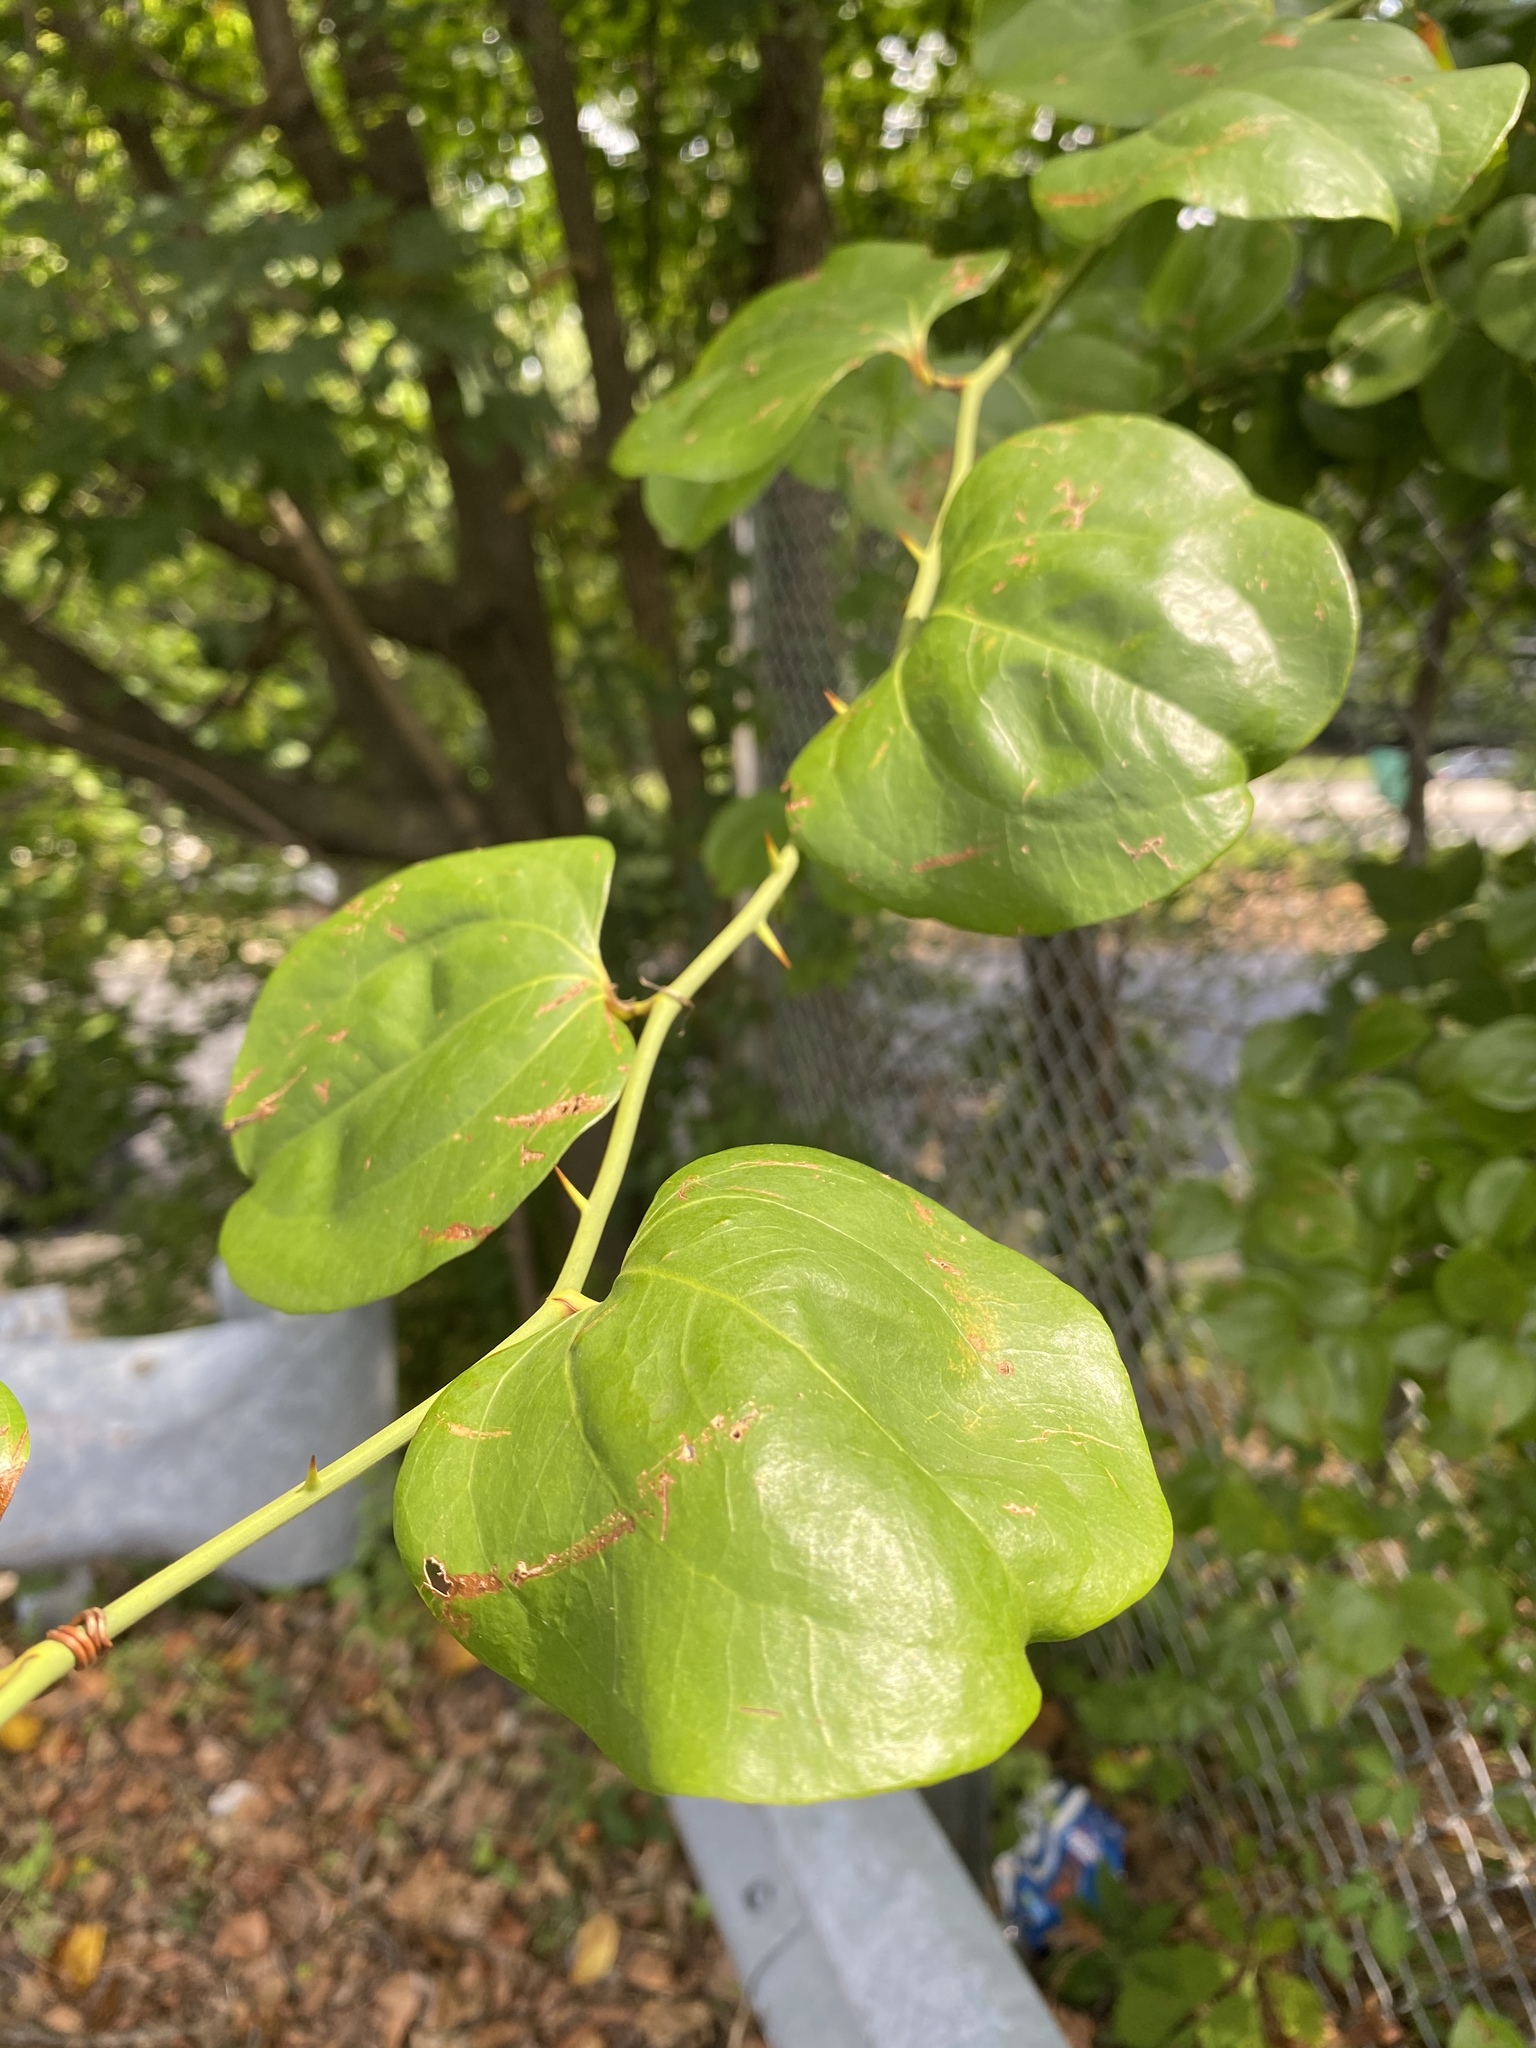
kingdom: Plantae
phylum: Tracheophyta
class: Liliopsida
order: Liliales
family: Smilacaceae
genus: Smilax
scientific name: Smilax rotundifolia
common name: Bullbriar
